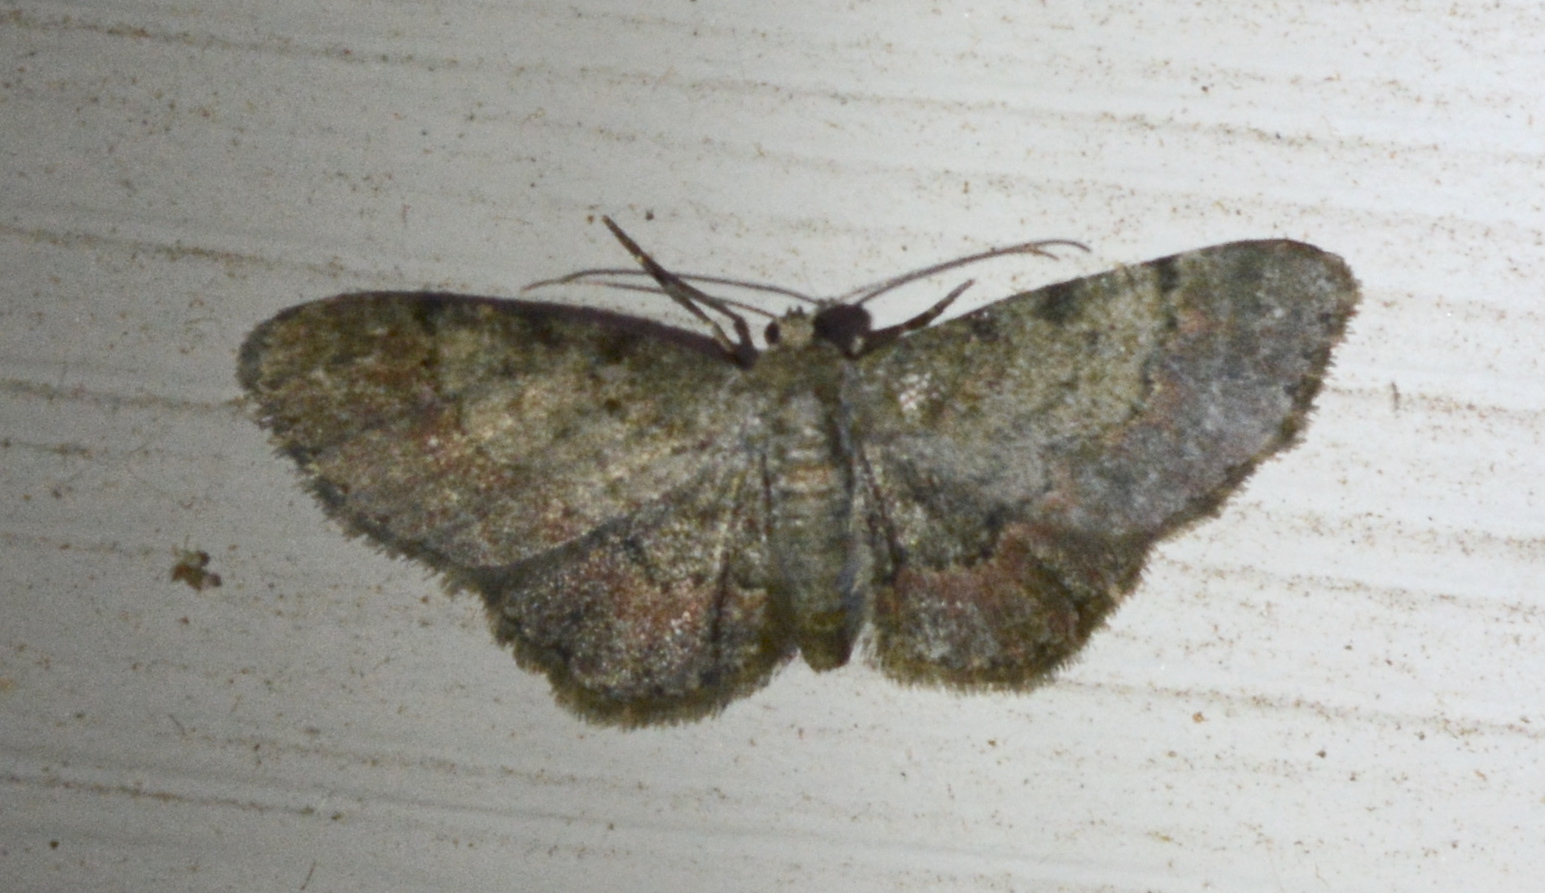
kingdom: Animalia
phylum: Arthropoda
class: Insecta
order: Lepidoptera
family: Geometridae
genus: Glenoides
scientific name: Glenoides texanaria
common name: Texas gray
